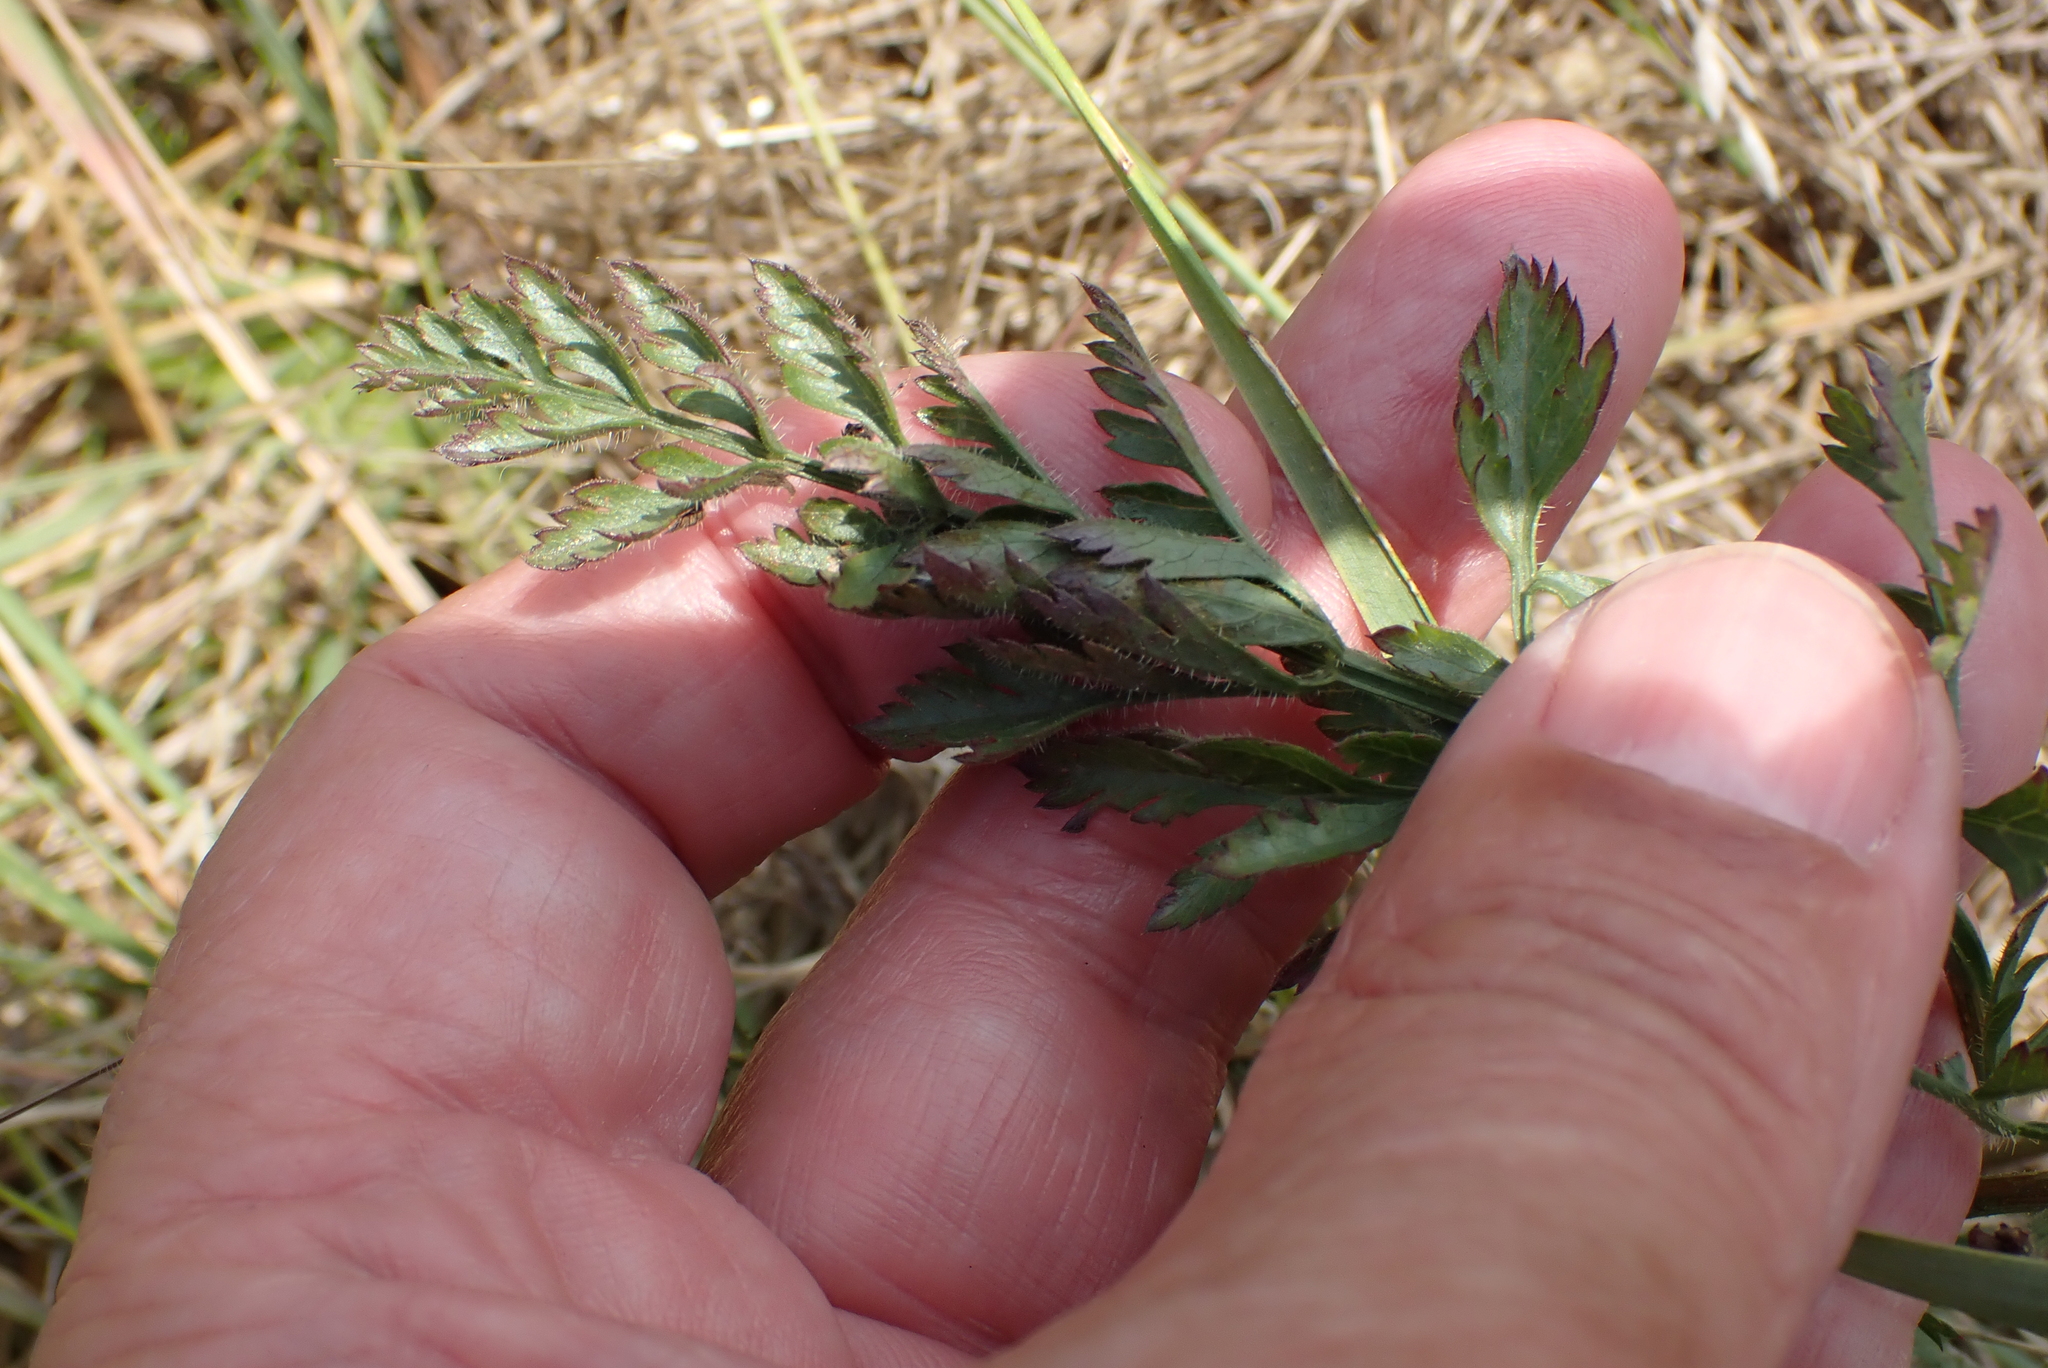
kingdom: Plantae
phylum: Tracheophyta
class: Magnoliopsida
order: Apiales
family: Apiaceae
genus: Daucus
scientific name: Daucus carota
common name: Wild carrot
